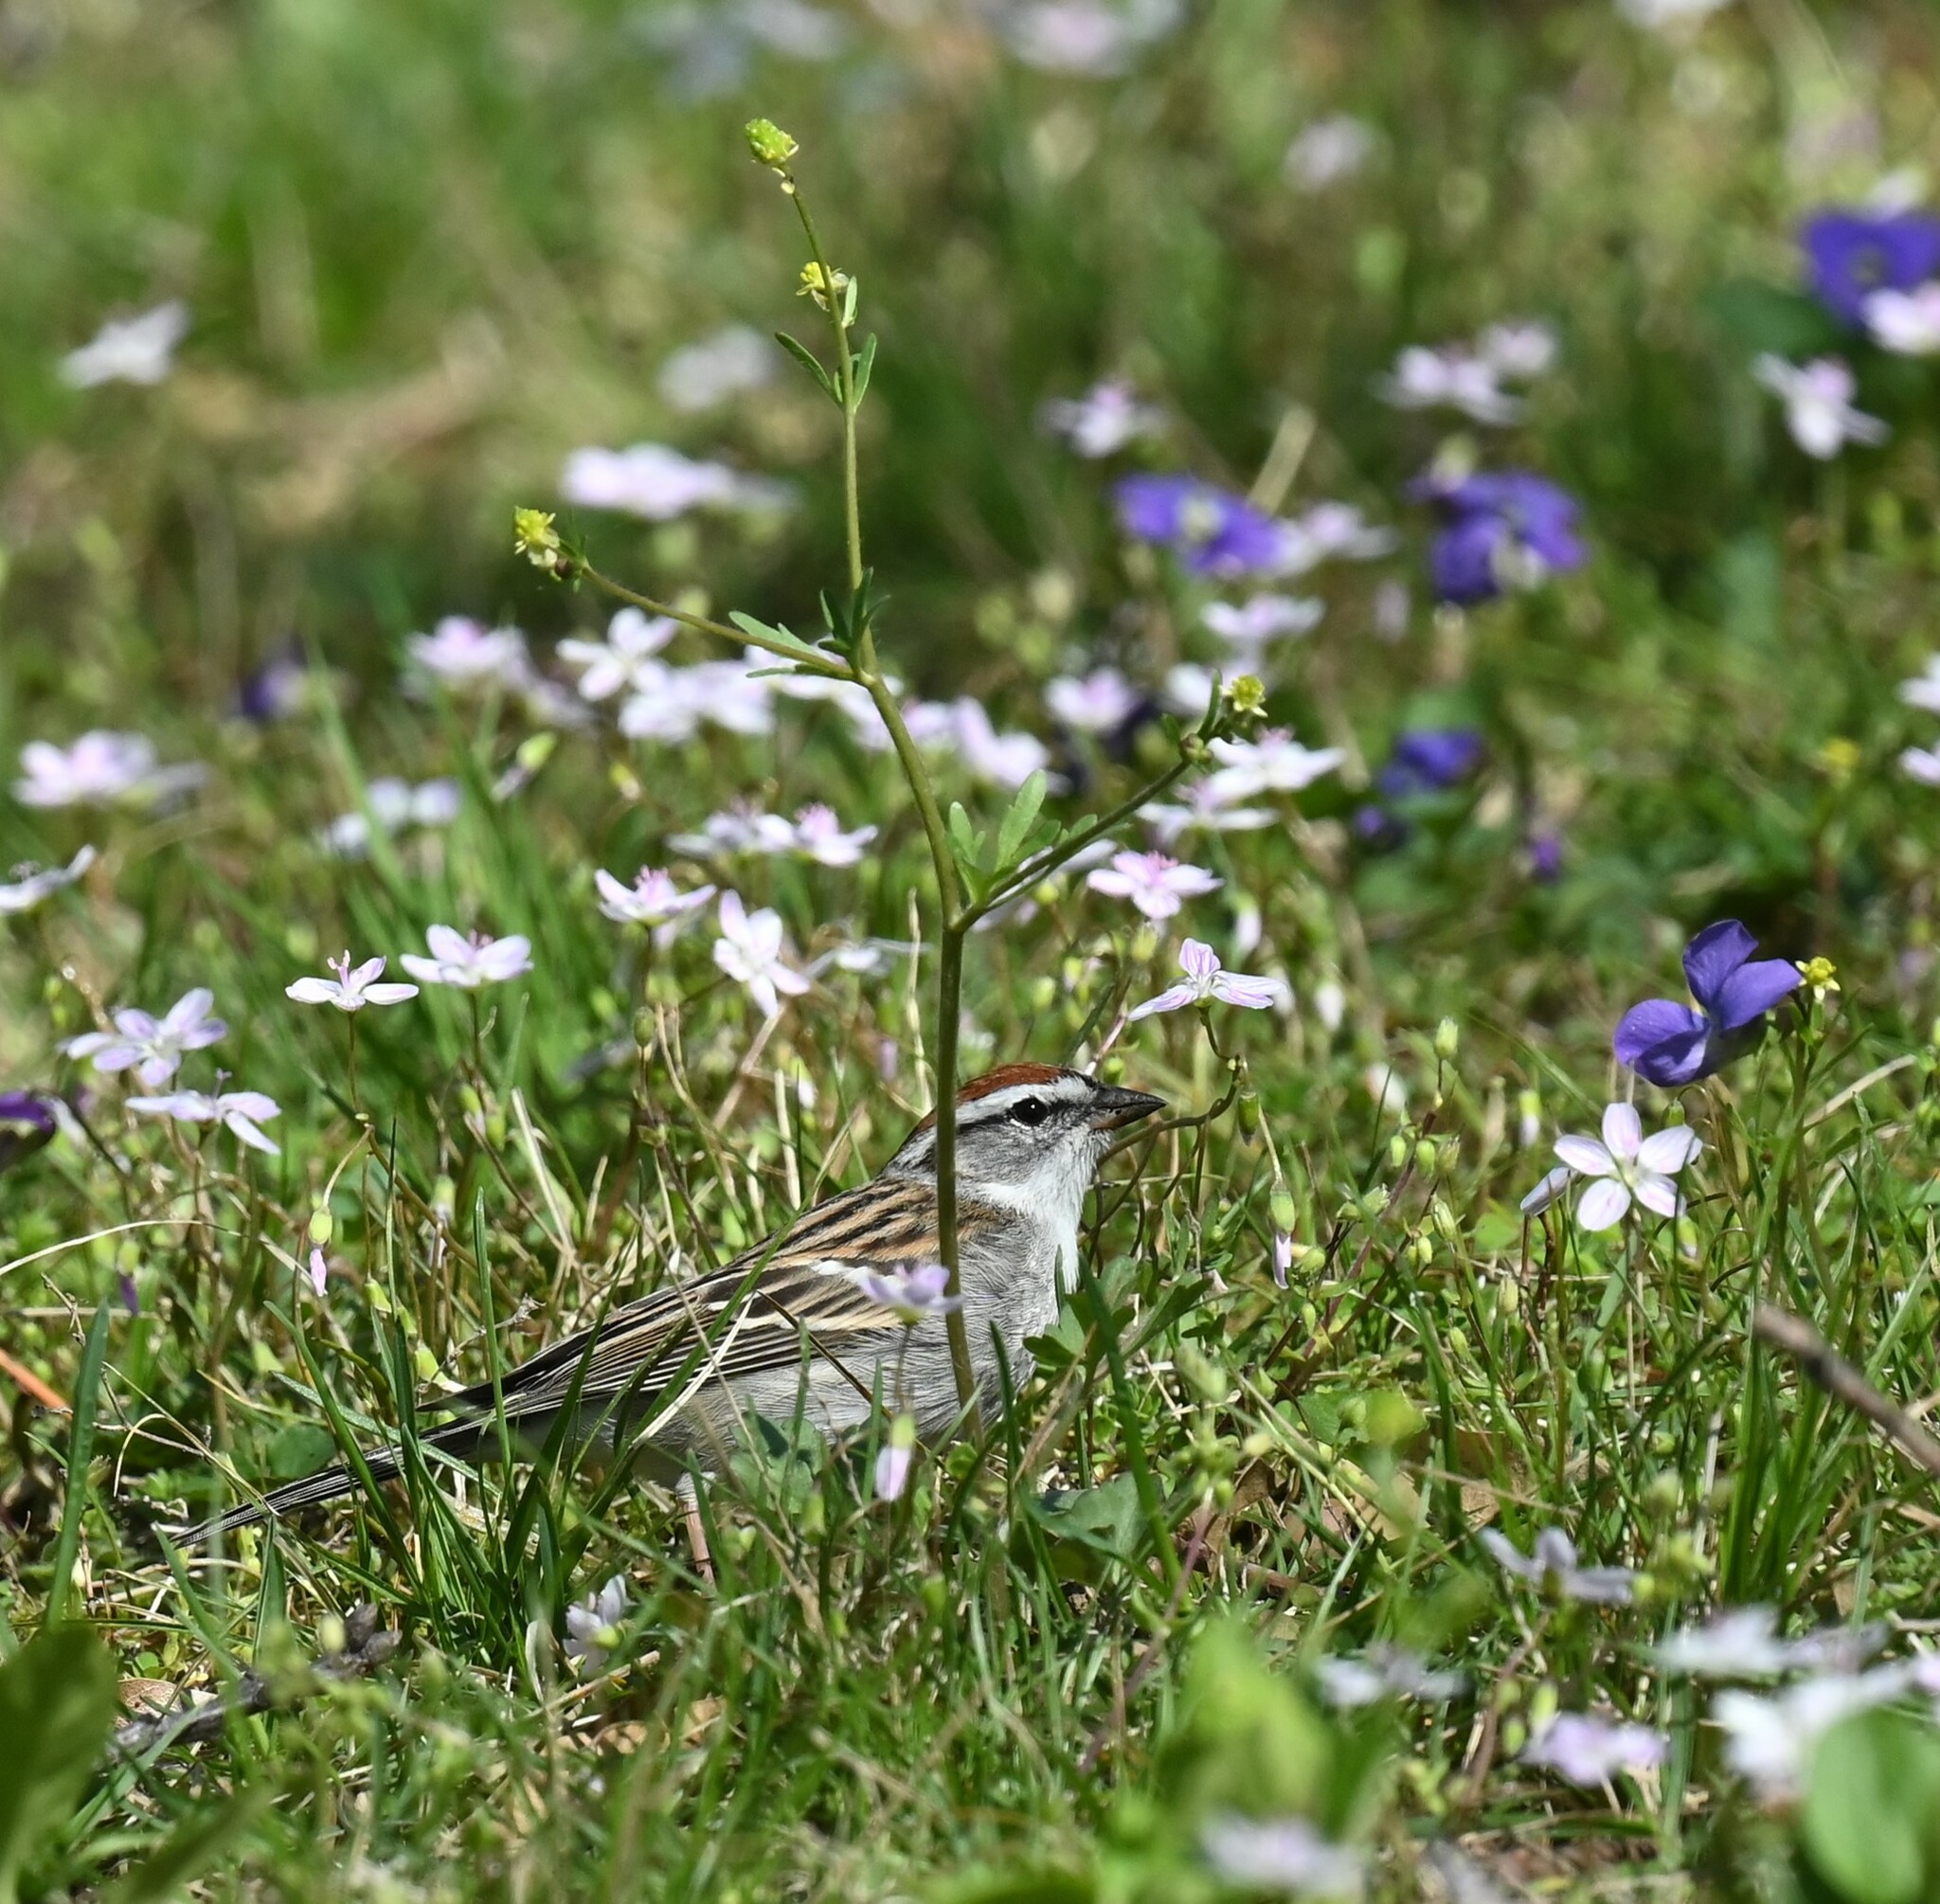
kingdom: Animalia
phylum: Chordata
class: Aves
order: Passeriformes
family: Passerellidae
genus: Spizella
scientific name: Spizella passerina
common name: Chipping sparrow
